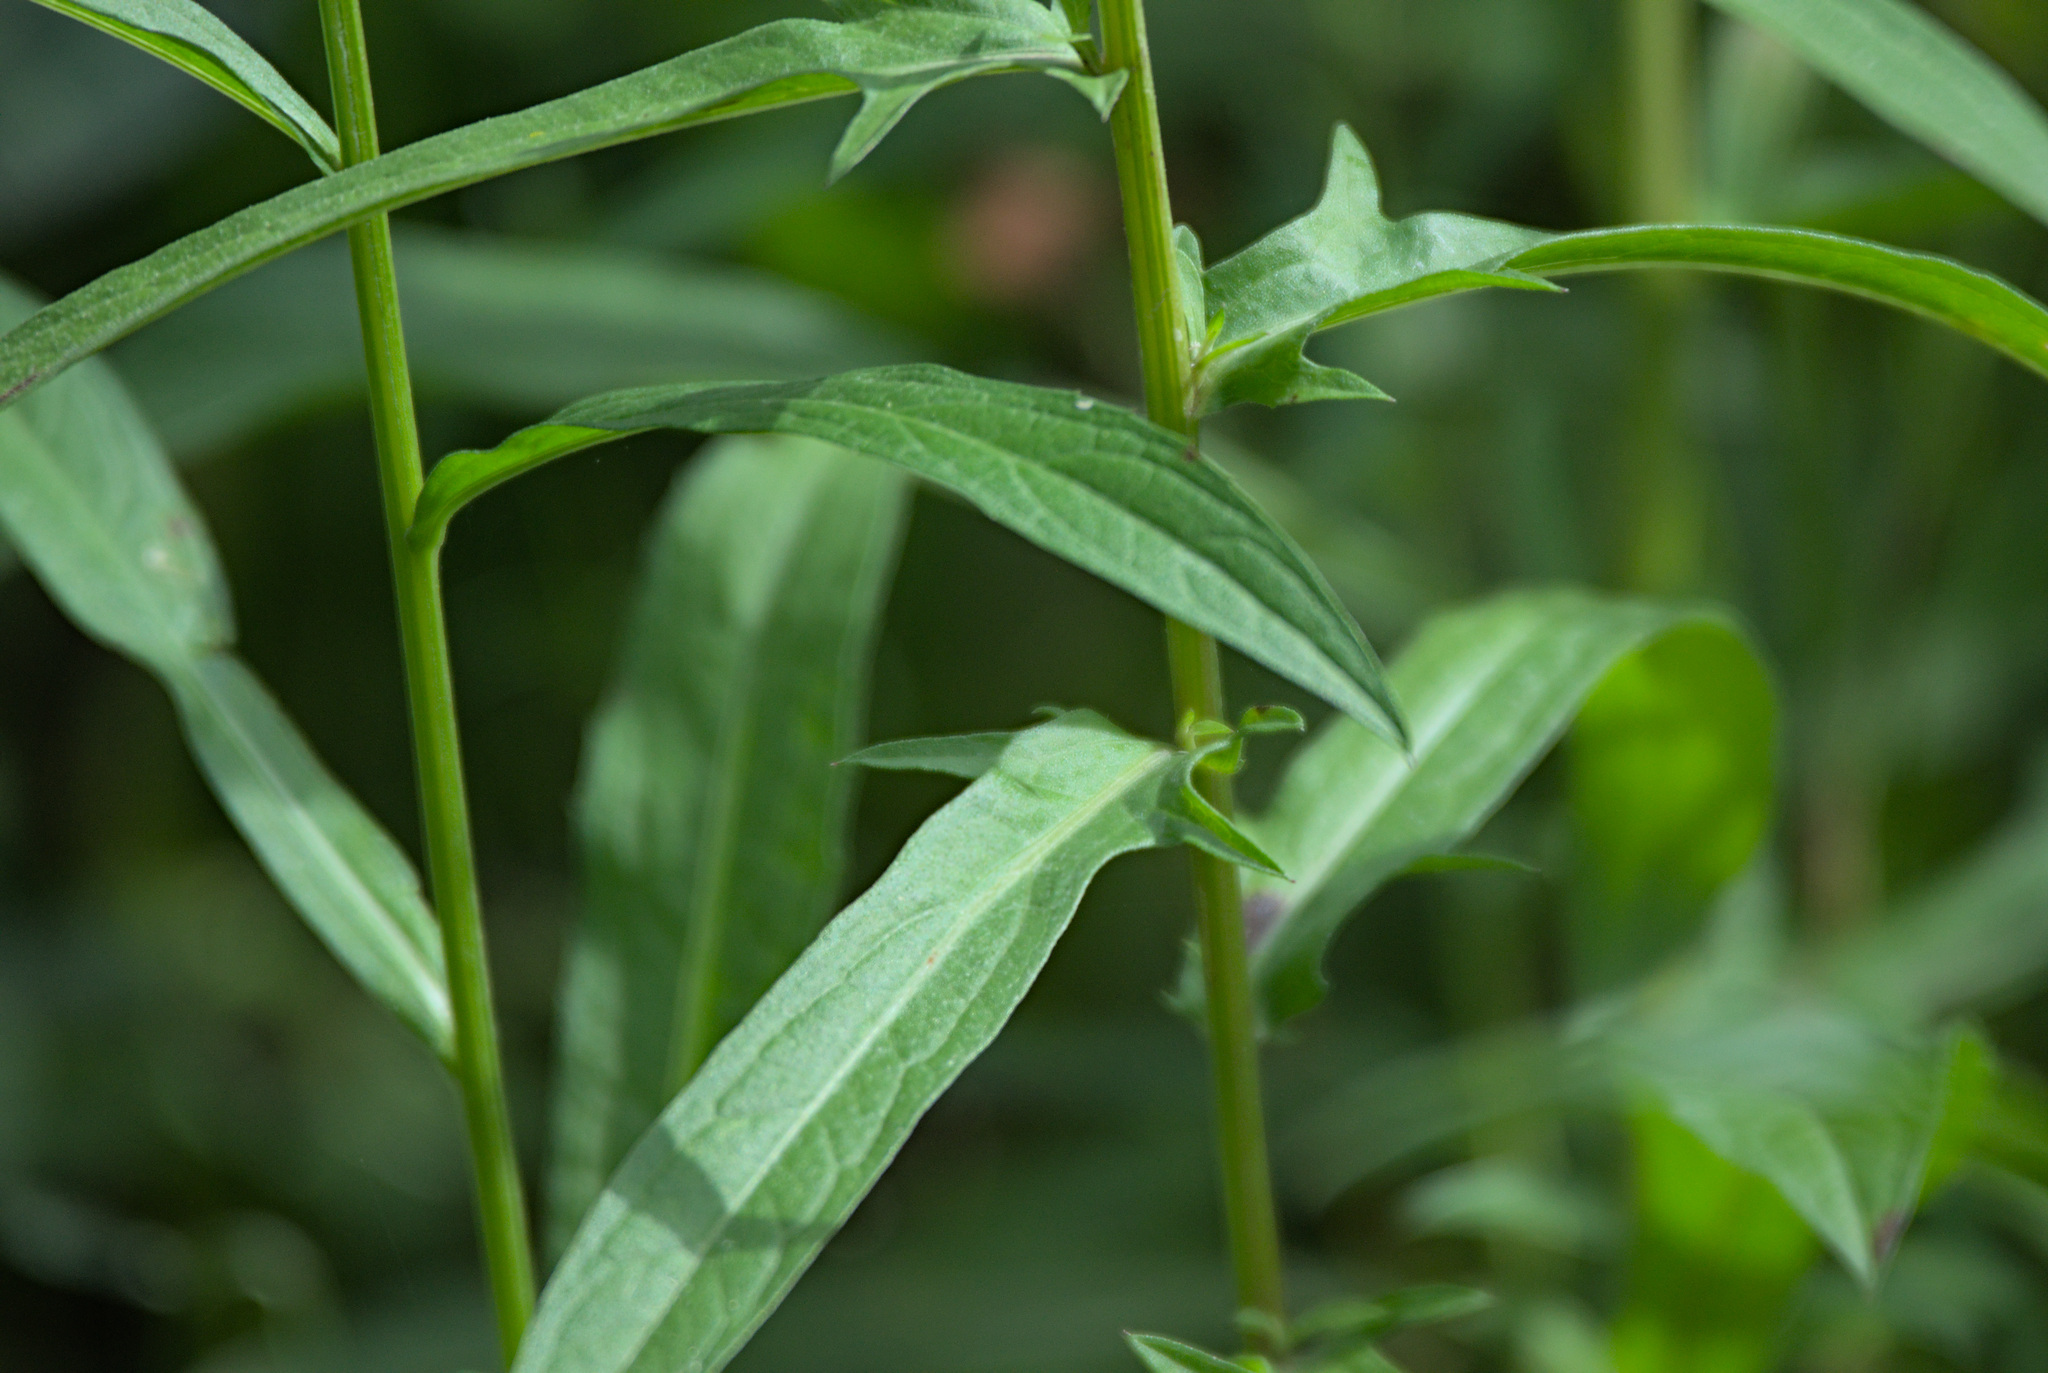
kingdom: Plantae
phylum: Tracheophyta
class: Magnoliopsida
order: Asterales
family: Asteraceae
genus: Centaurea
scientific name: Centaurea jacea
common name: Brown knapweed
